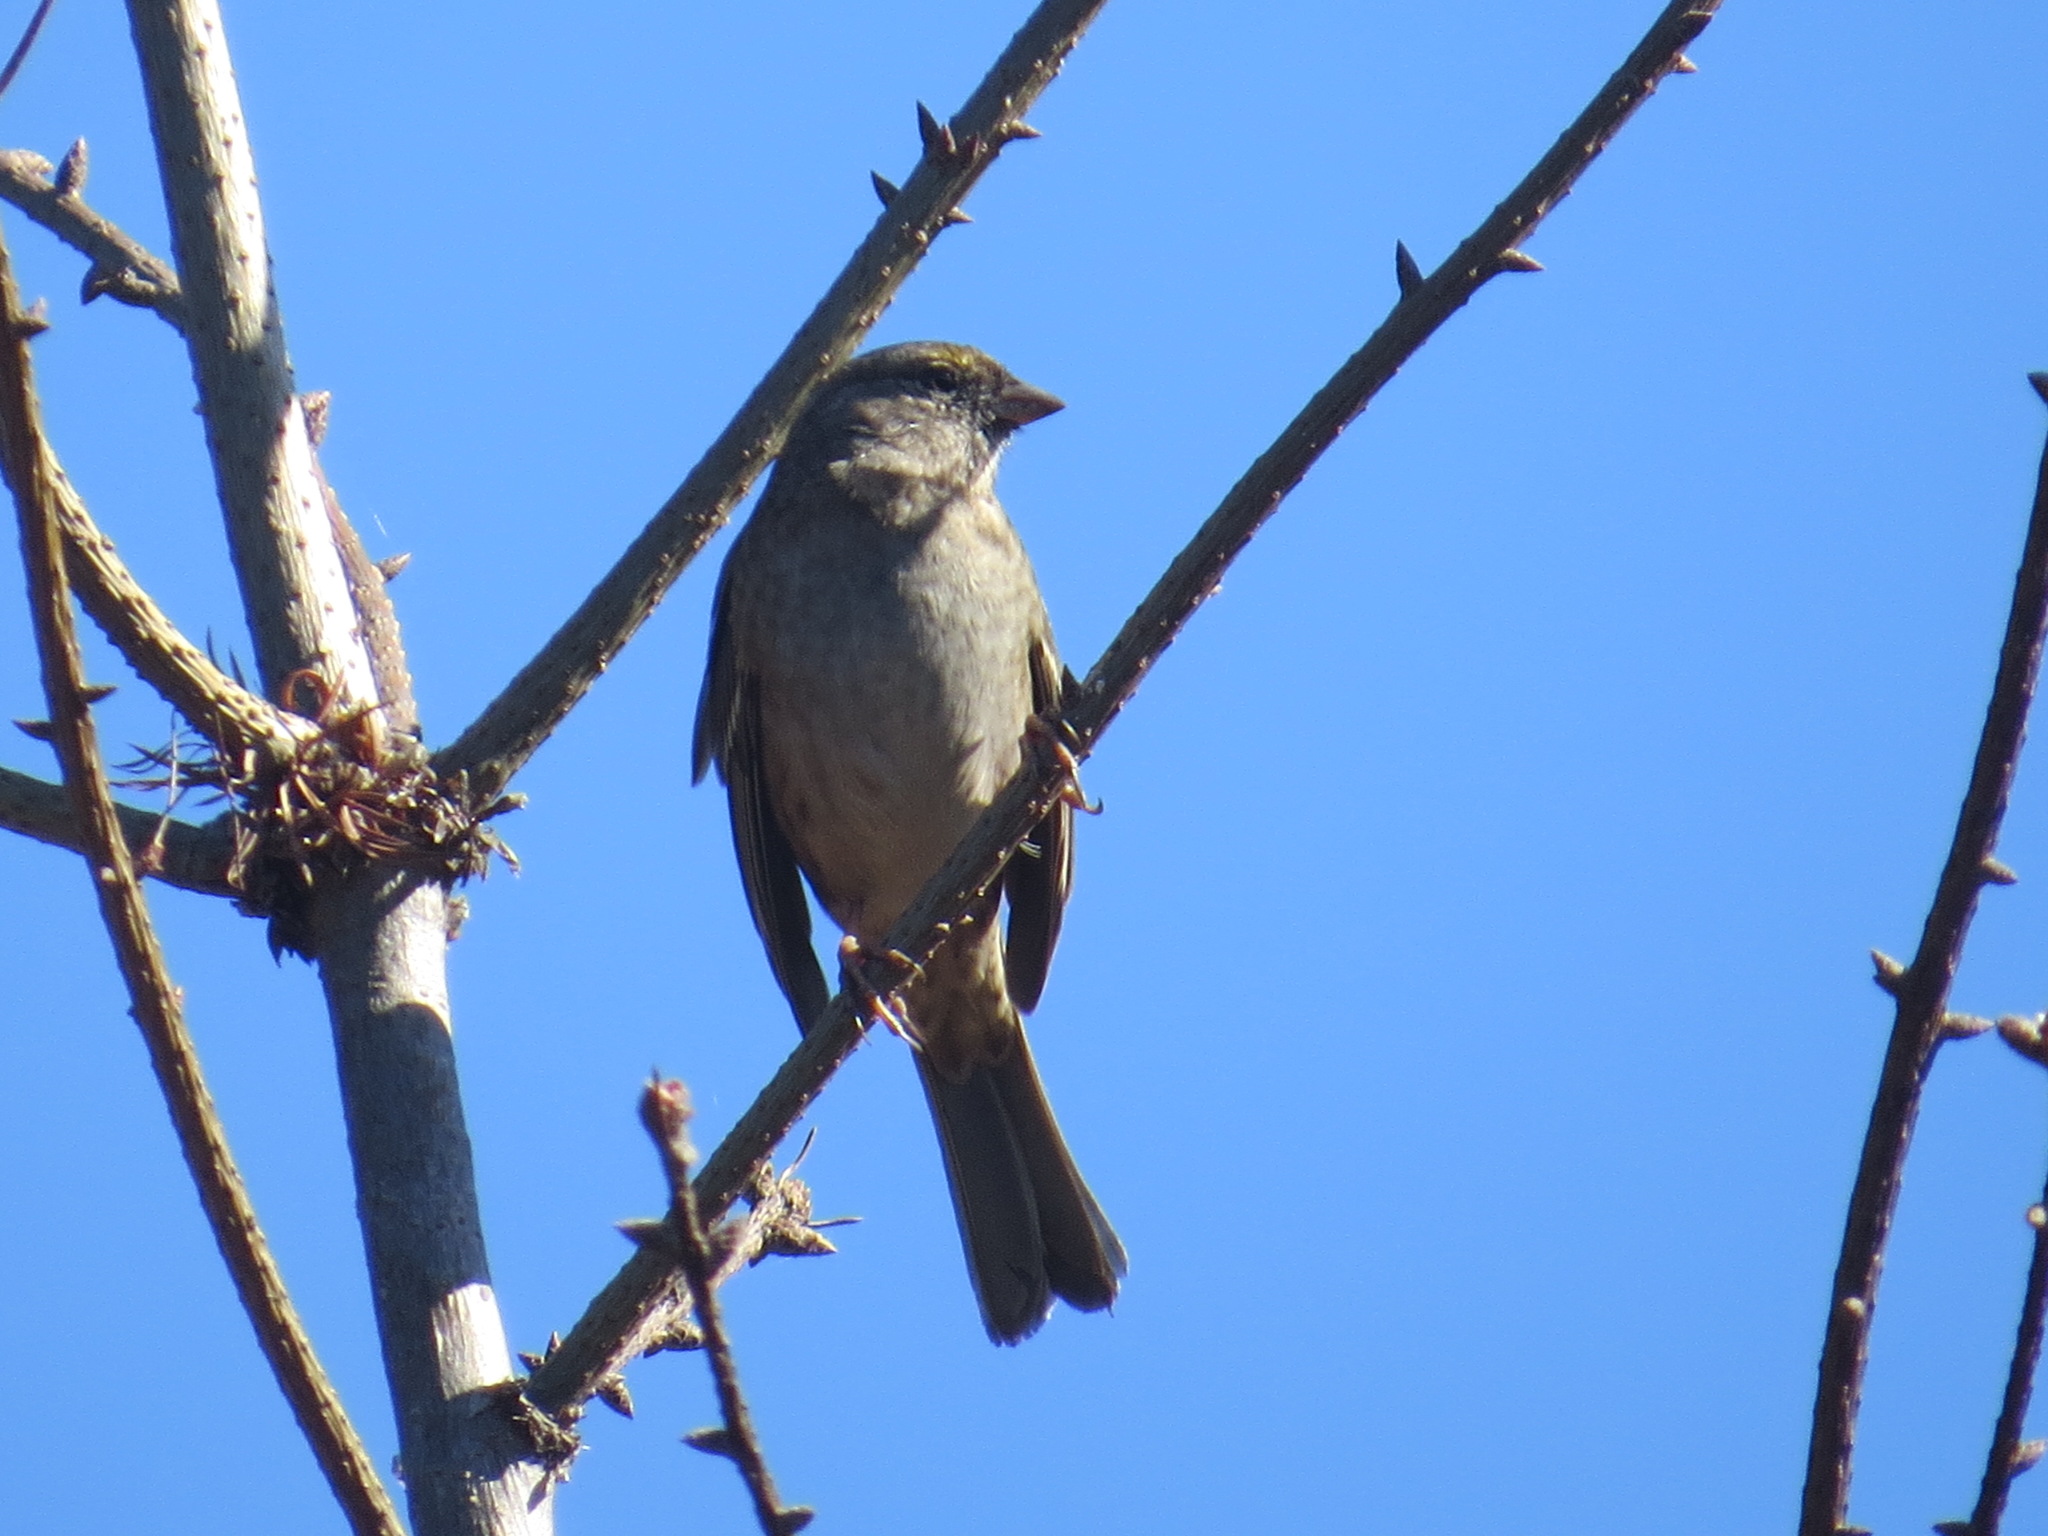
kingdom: Animalia
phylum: Chordata
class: Aves
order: Passeriformes
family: Passerellidae
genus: Zonotrichia
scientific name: Zonotrichia atricapilla
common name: Golden-crowned sparrow
